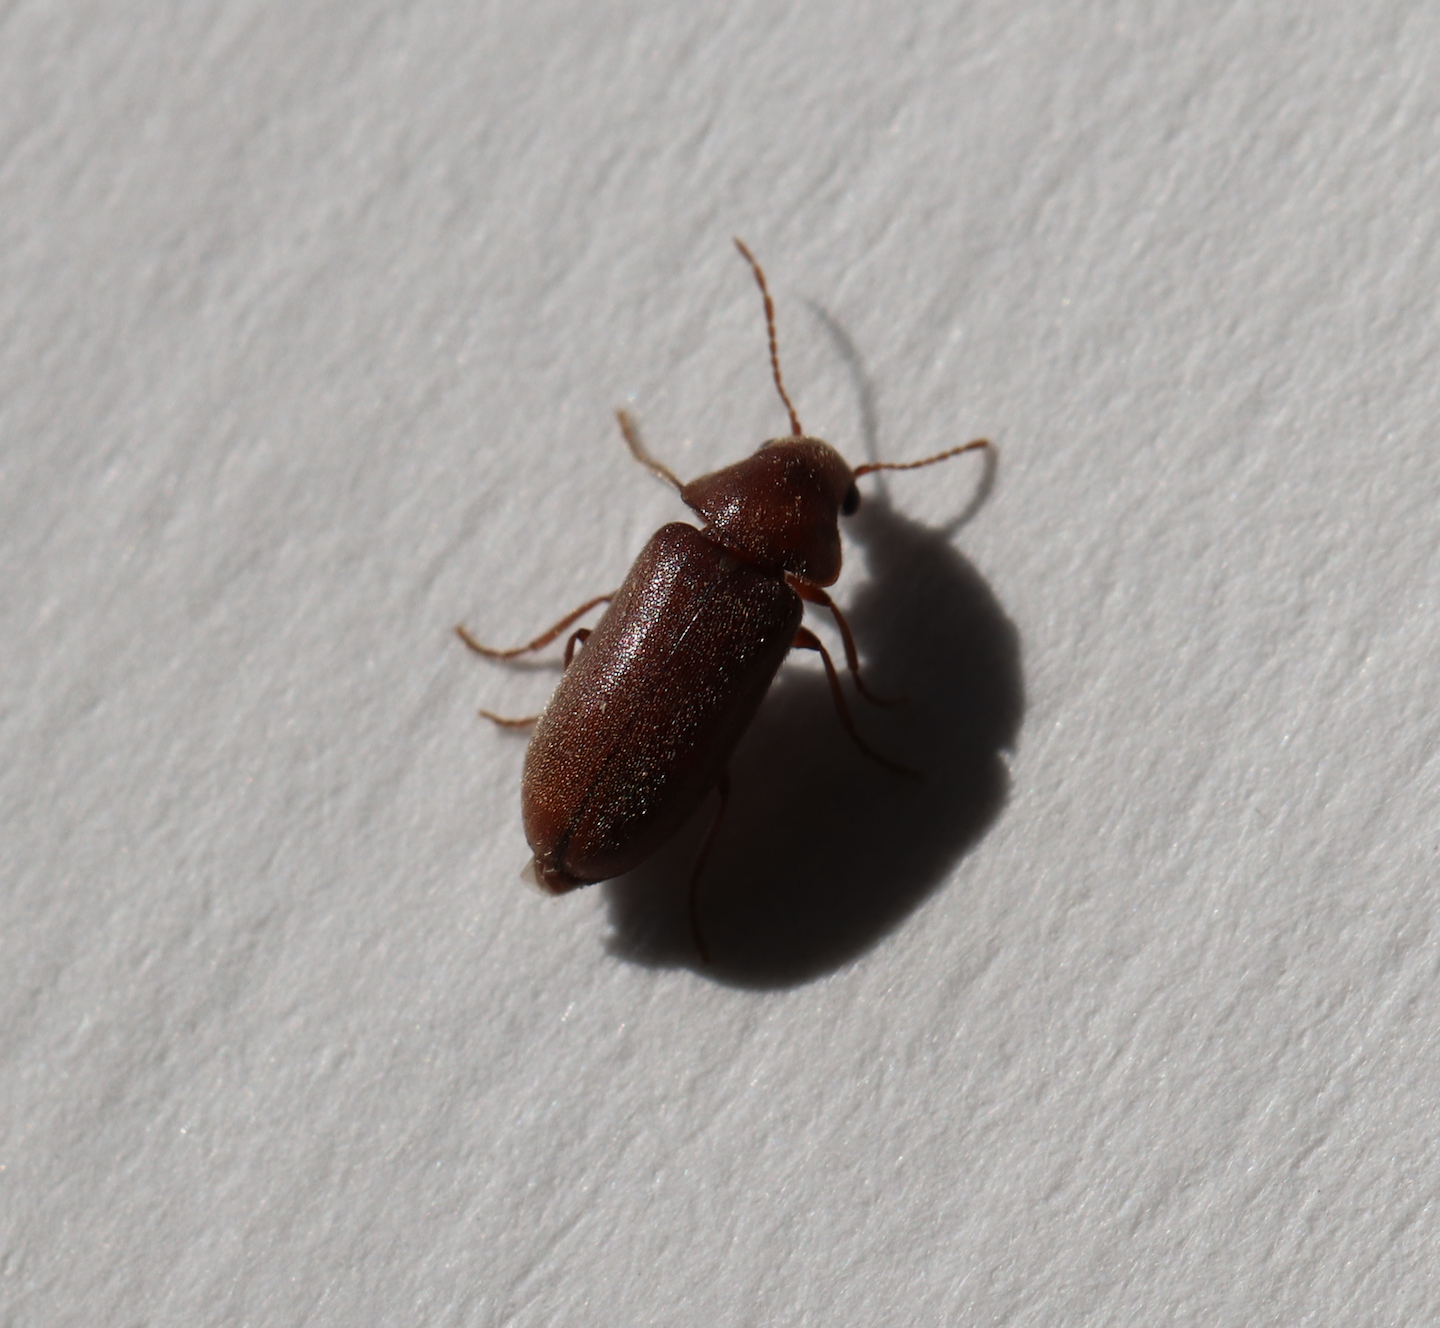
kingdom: Animalia
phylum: Arthropoda
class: Insecta
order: Coleoptera
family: Anobiidae
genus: Ernobius
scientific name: Ernobius mollis
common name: Pine bark anobiid beetle
